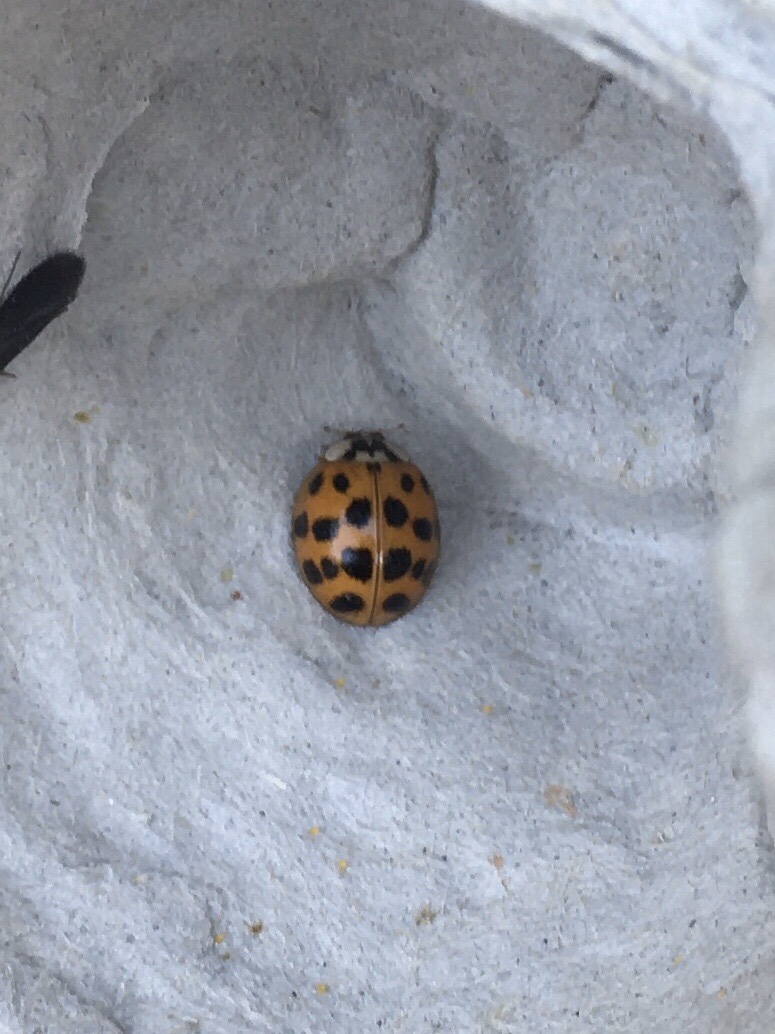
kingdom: Animalia
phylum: Arthropoda
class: Insecta
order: Coleoptera
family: Coccinellidae
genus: Harmonia
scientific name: Harmonia axyridis
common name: Harlequin ladybird
